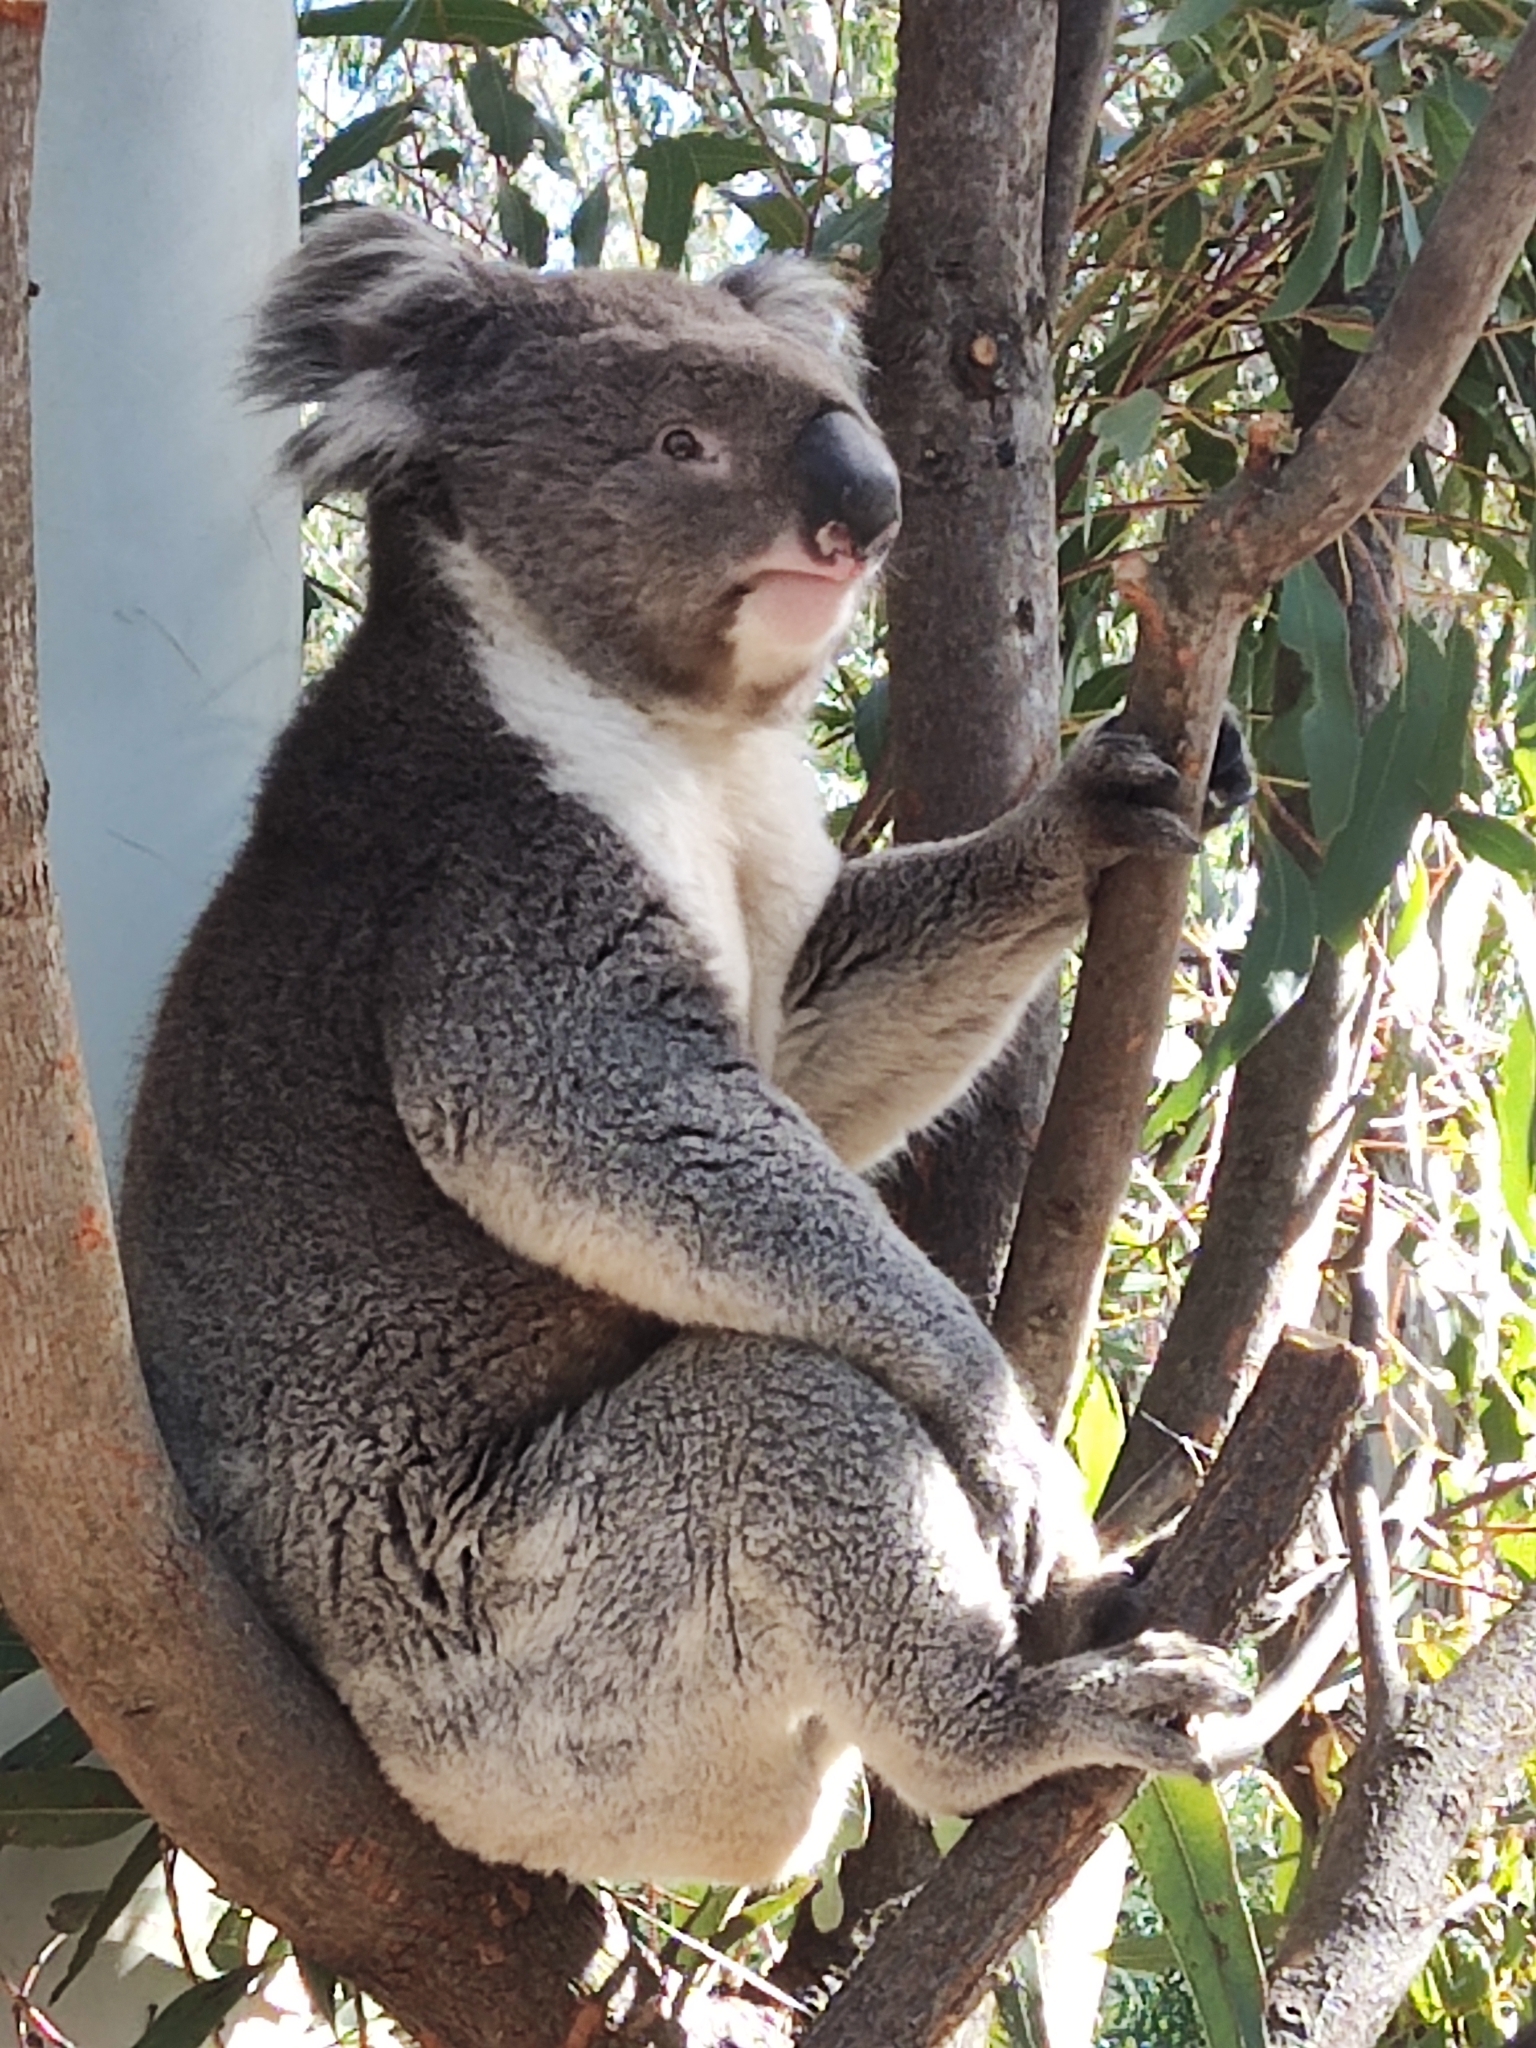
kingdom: Animalia
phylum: Chordata
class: Mammalia
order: Diprotodontia
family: Phascolarctidae
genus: Phascolarctos
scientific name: Phascolarctos cinereus
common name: Koala
